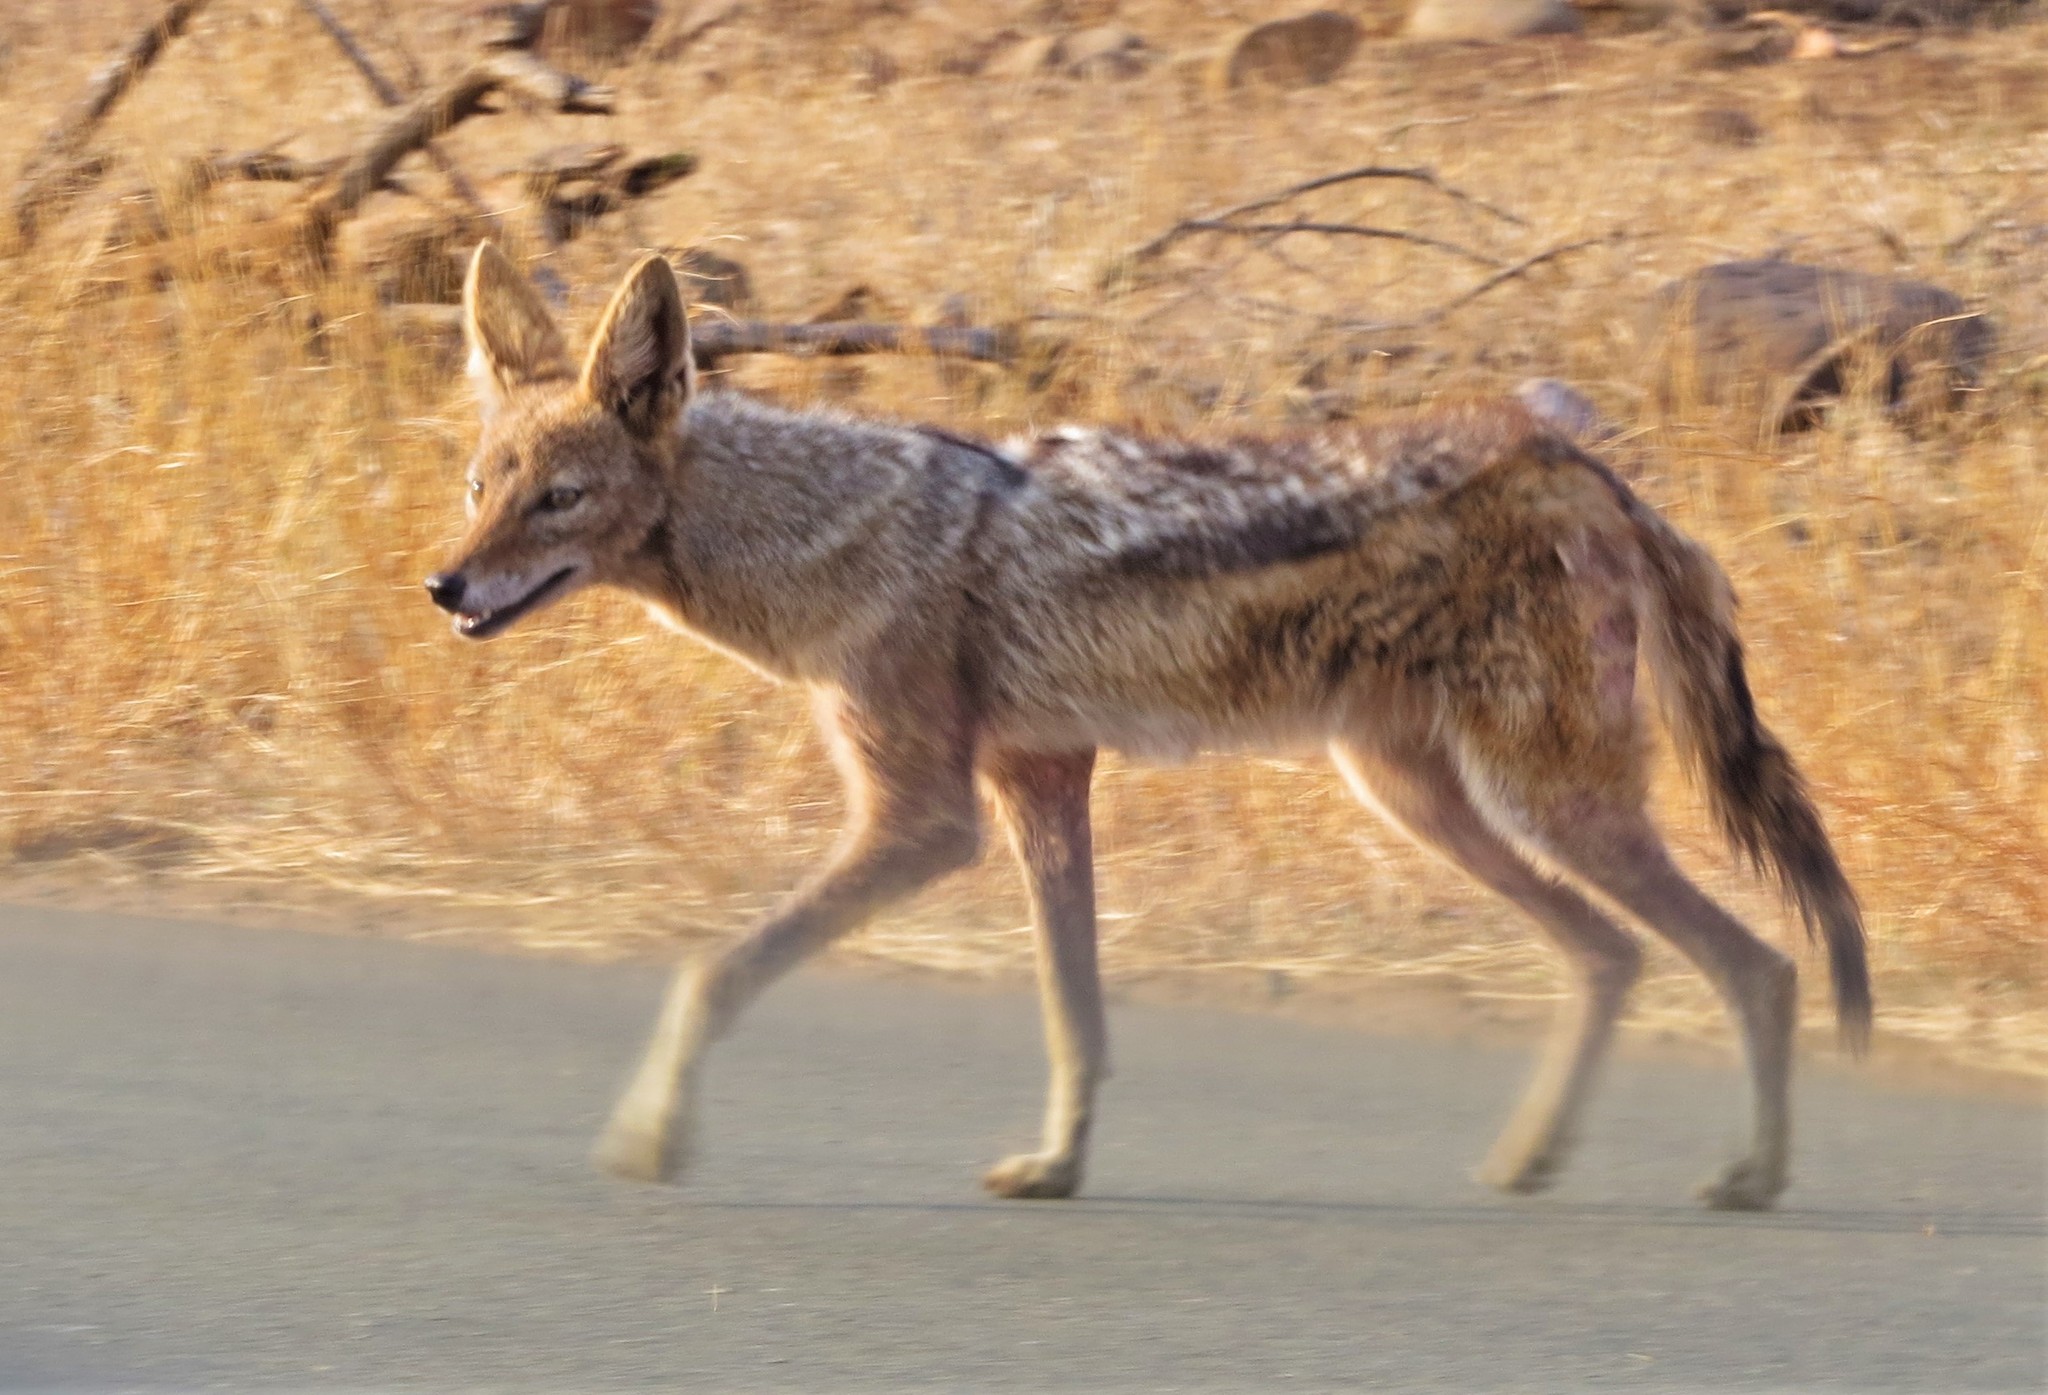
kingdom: Animalia
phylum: Chordata
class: Mammalia
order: Carnivora
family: Canidae
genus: Lupulella
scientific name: Lupulella
